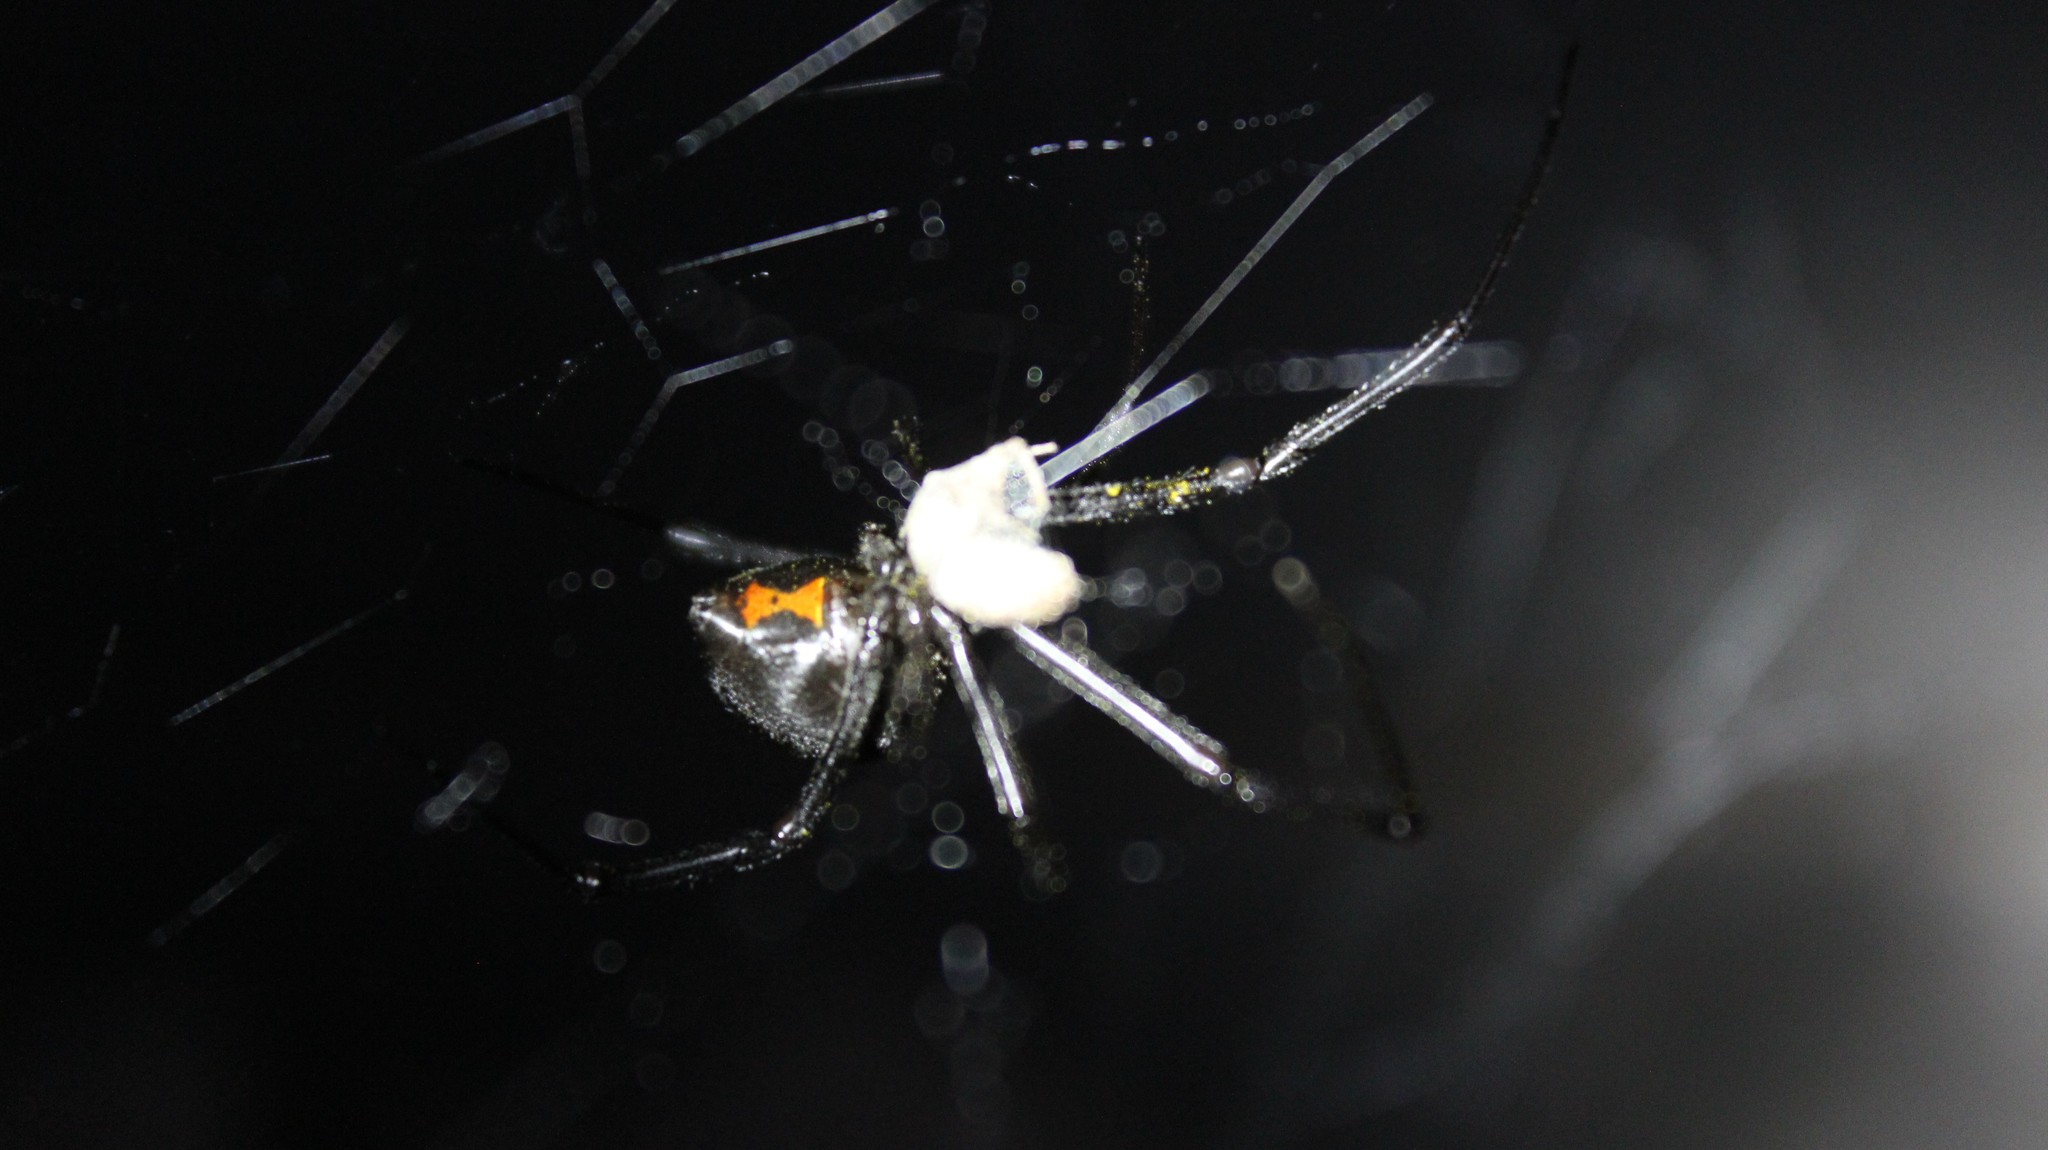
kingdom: Animalia
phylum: Arthropoda
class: Arachnida
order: Araneae
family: Theridiidae
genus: Latrodectus
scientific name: Latrodectus hesperus
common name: Western black widow
